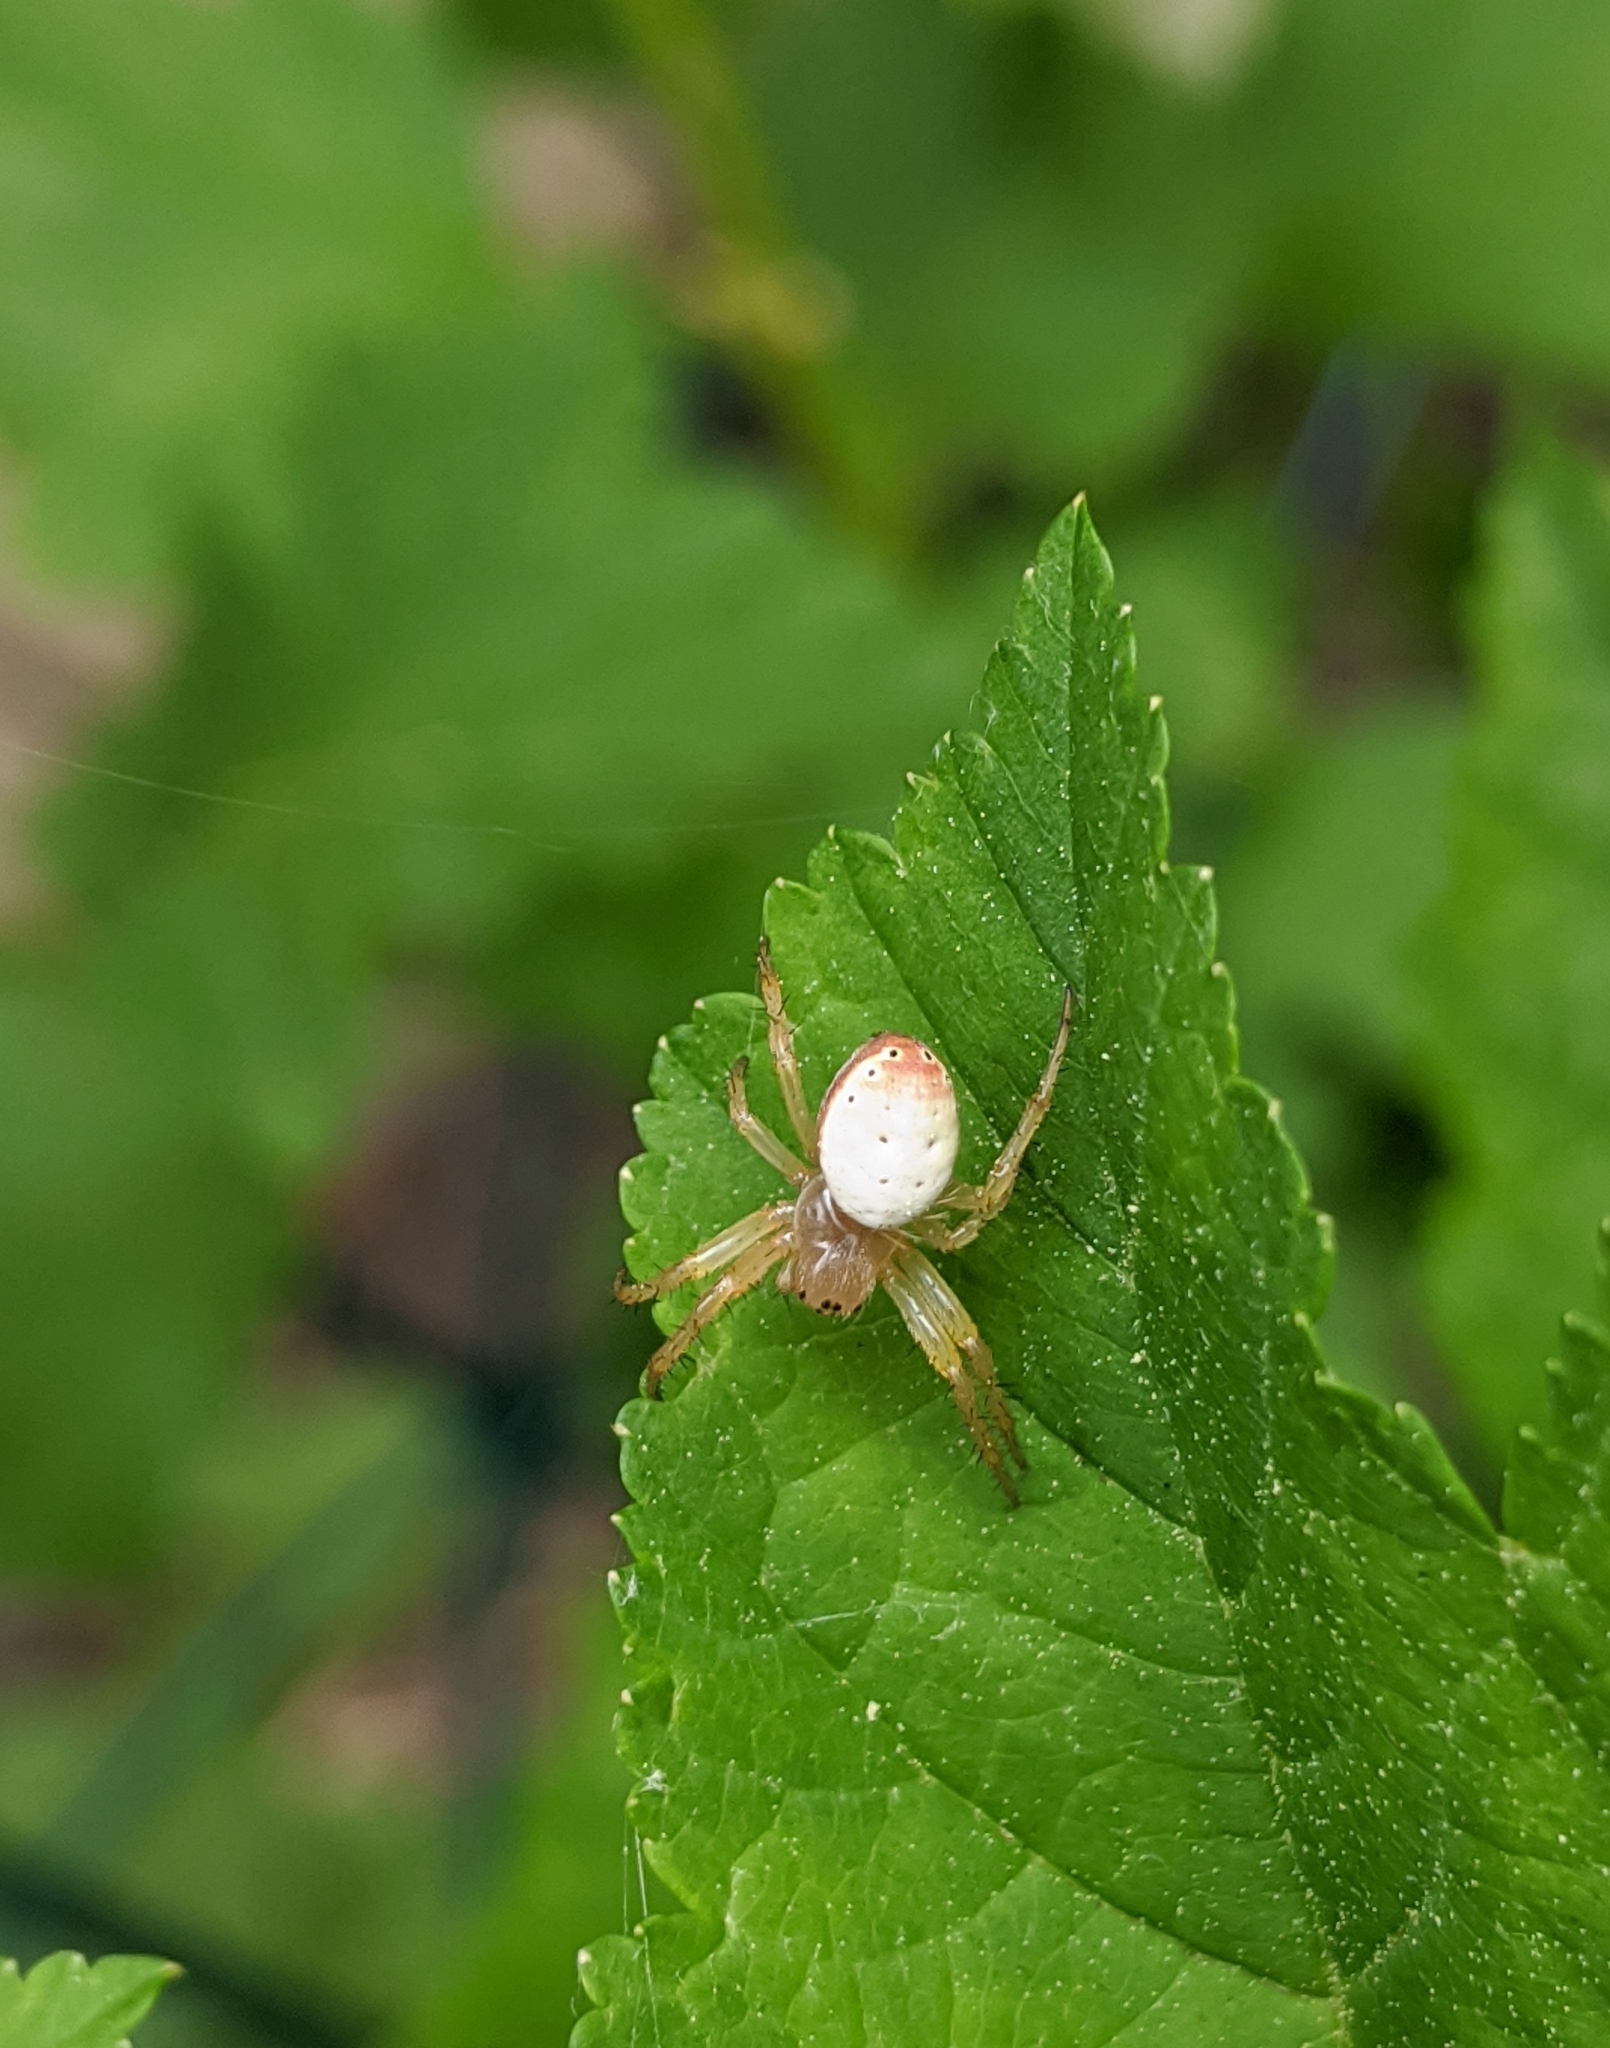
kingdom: Animalia
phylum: Arthropoda
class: Arachnida
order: Araneae
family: Araneidae
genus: Araniella
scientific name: Araniella displicata
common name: Sixspotted orb weaver
